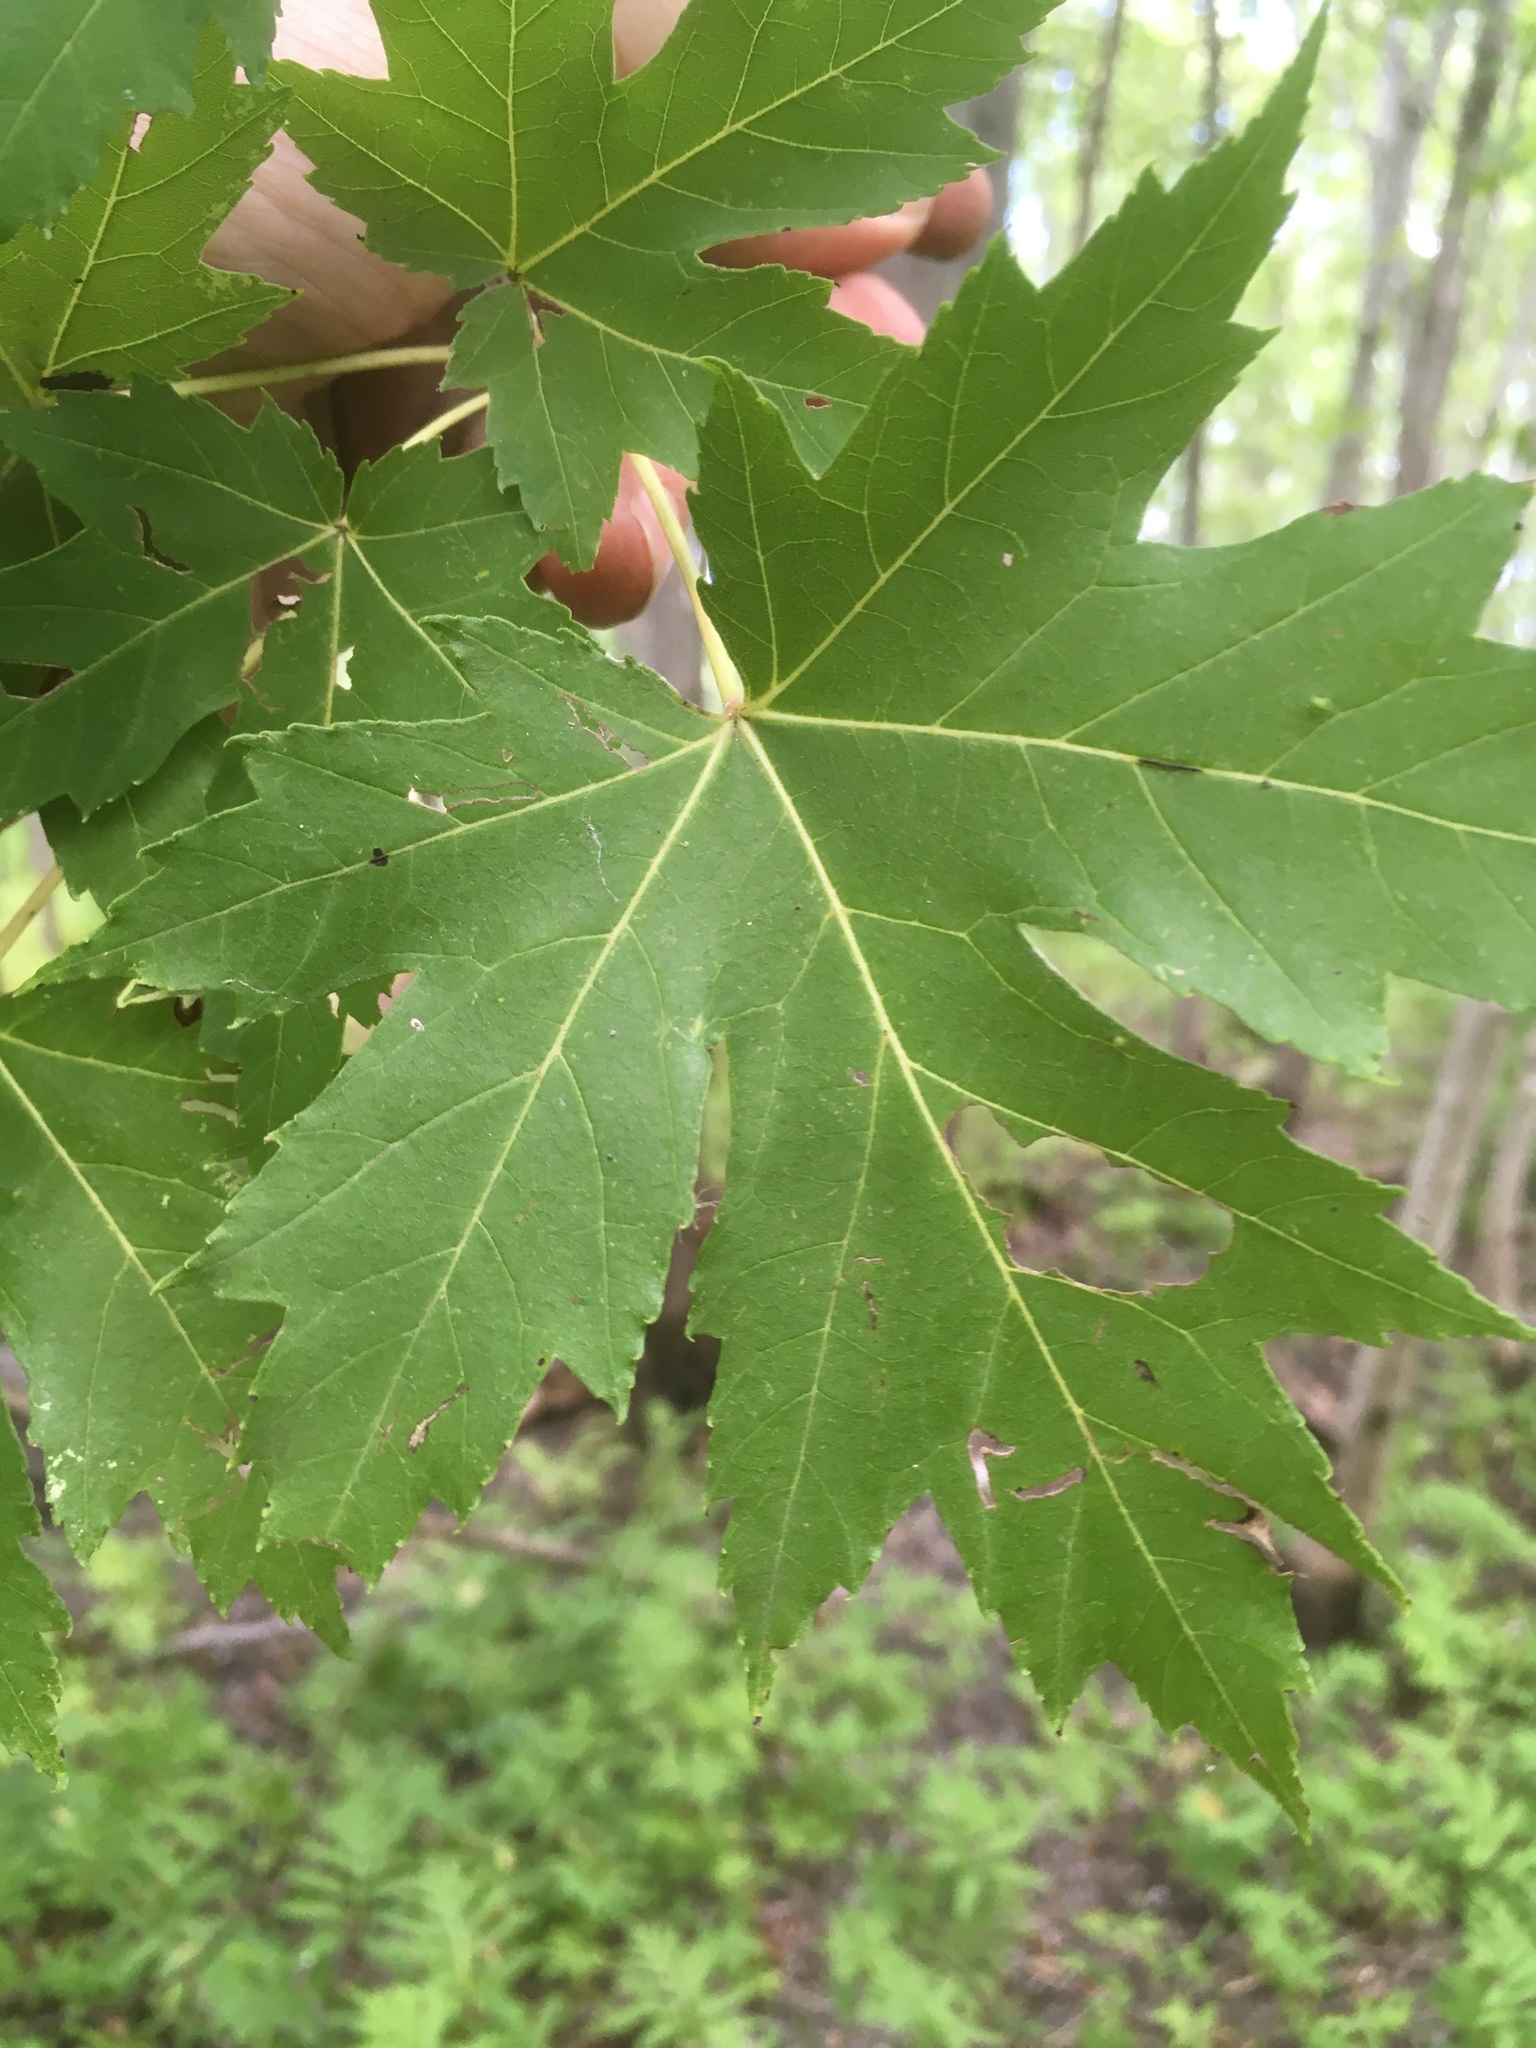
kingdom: Plantae
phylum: Tracheophyta
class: Magnoliopsida
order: Sapindales
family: Sapindaceae
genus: Acer
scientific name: Acer saccharinum
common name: Silver maple
